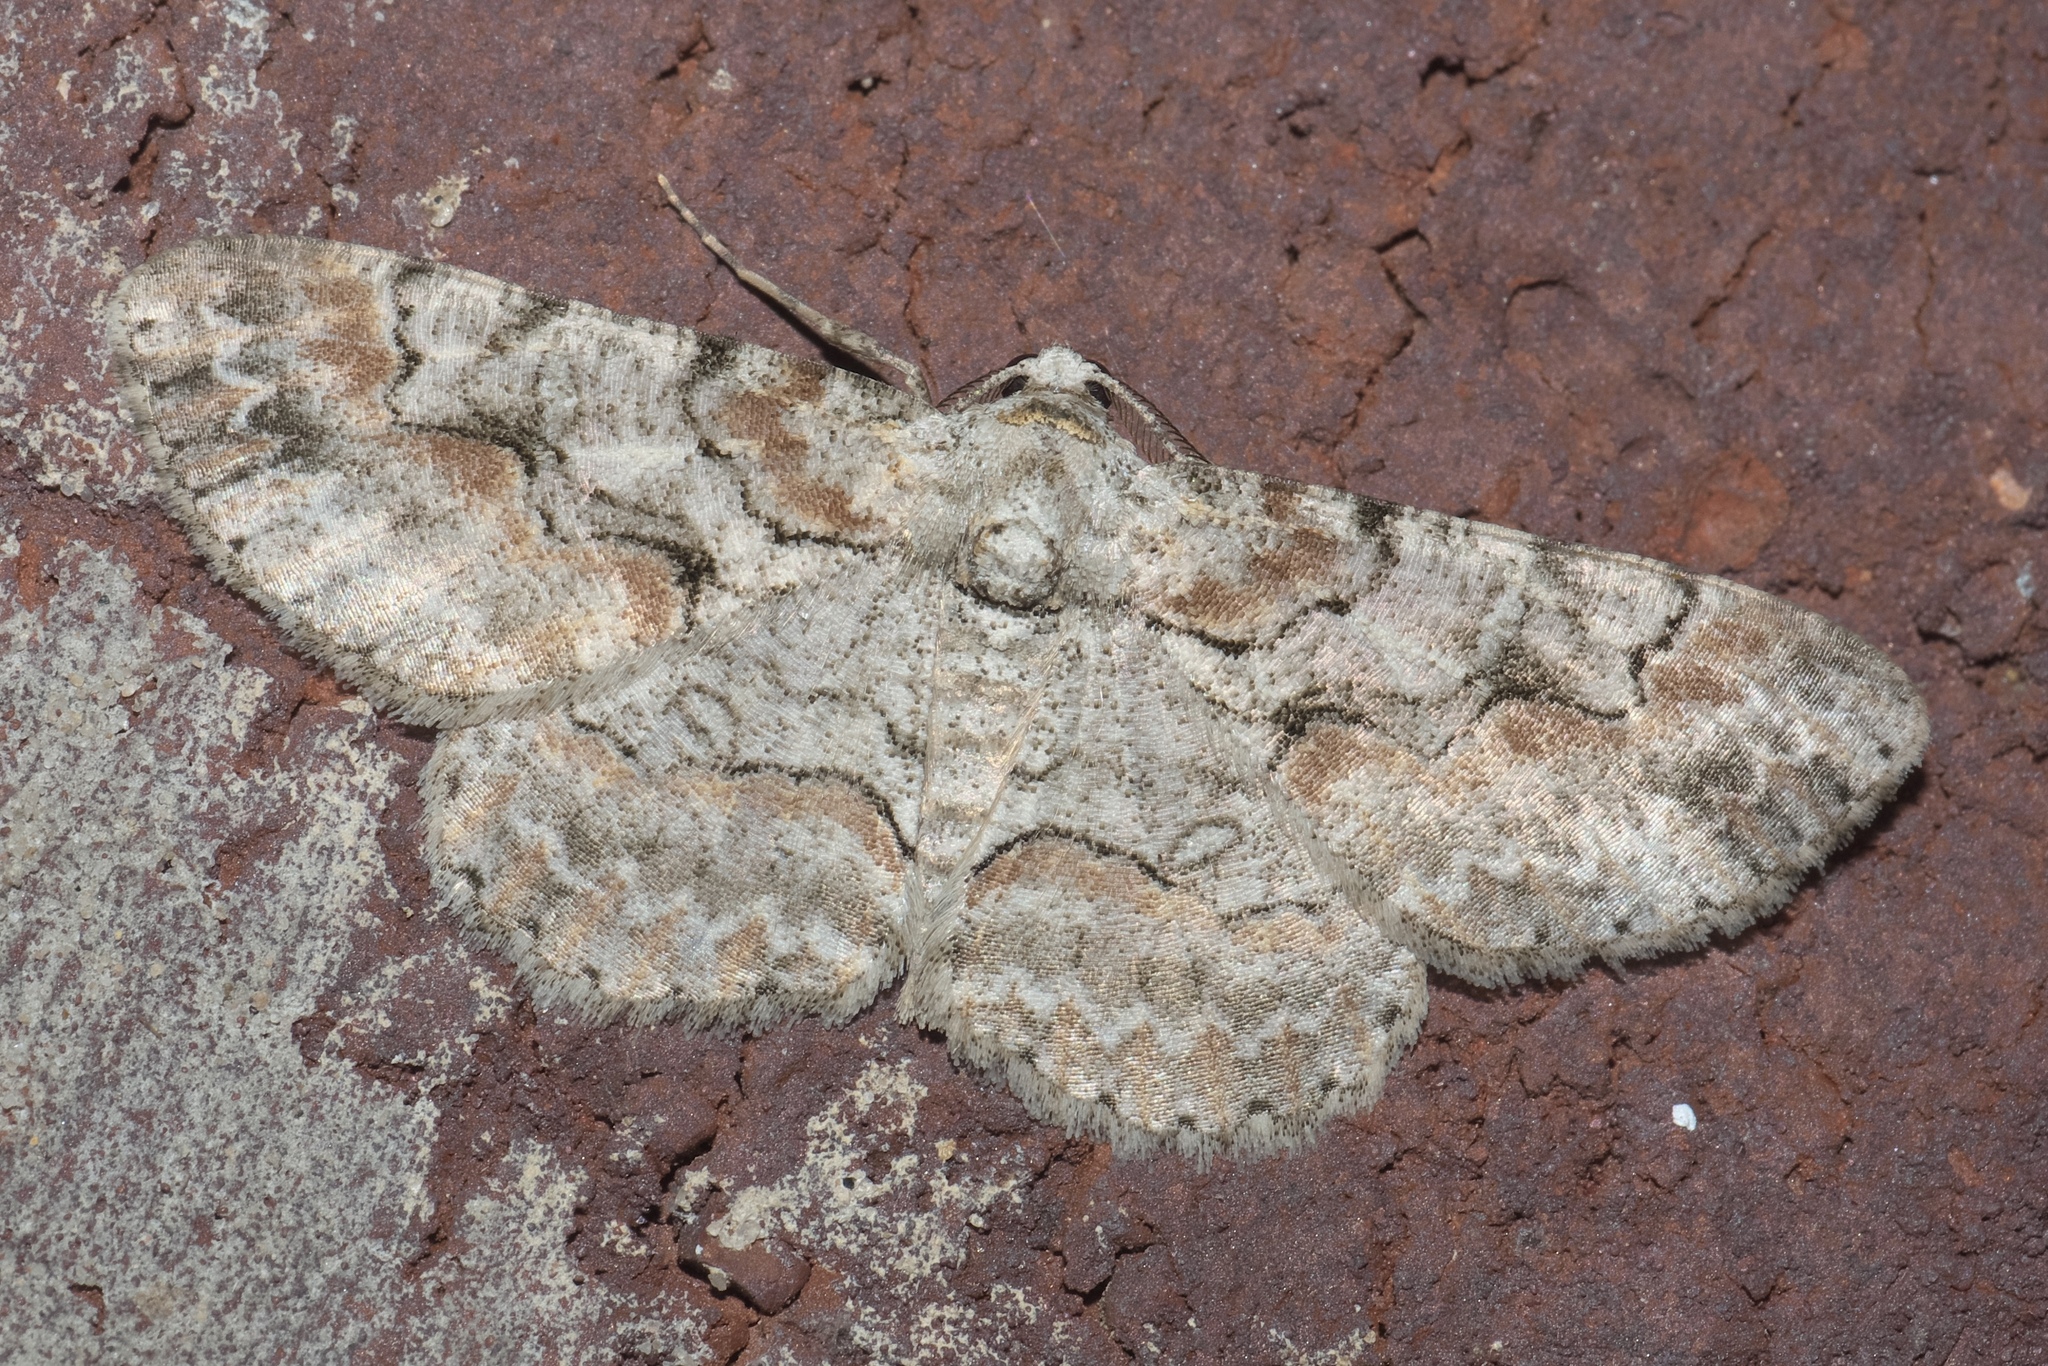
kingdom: Animalia
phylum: Arthropoda
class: Insecta
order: Lepidoptera
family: Geometridae
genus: Iridopsis
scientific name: Iridopsis defectaria
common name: Brown-shaded gray
